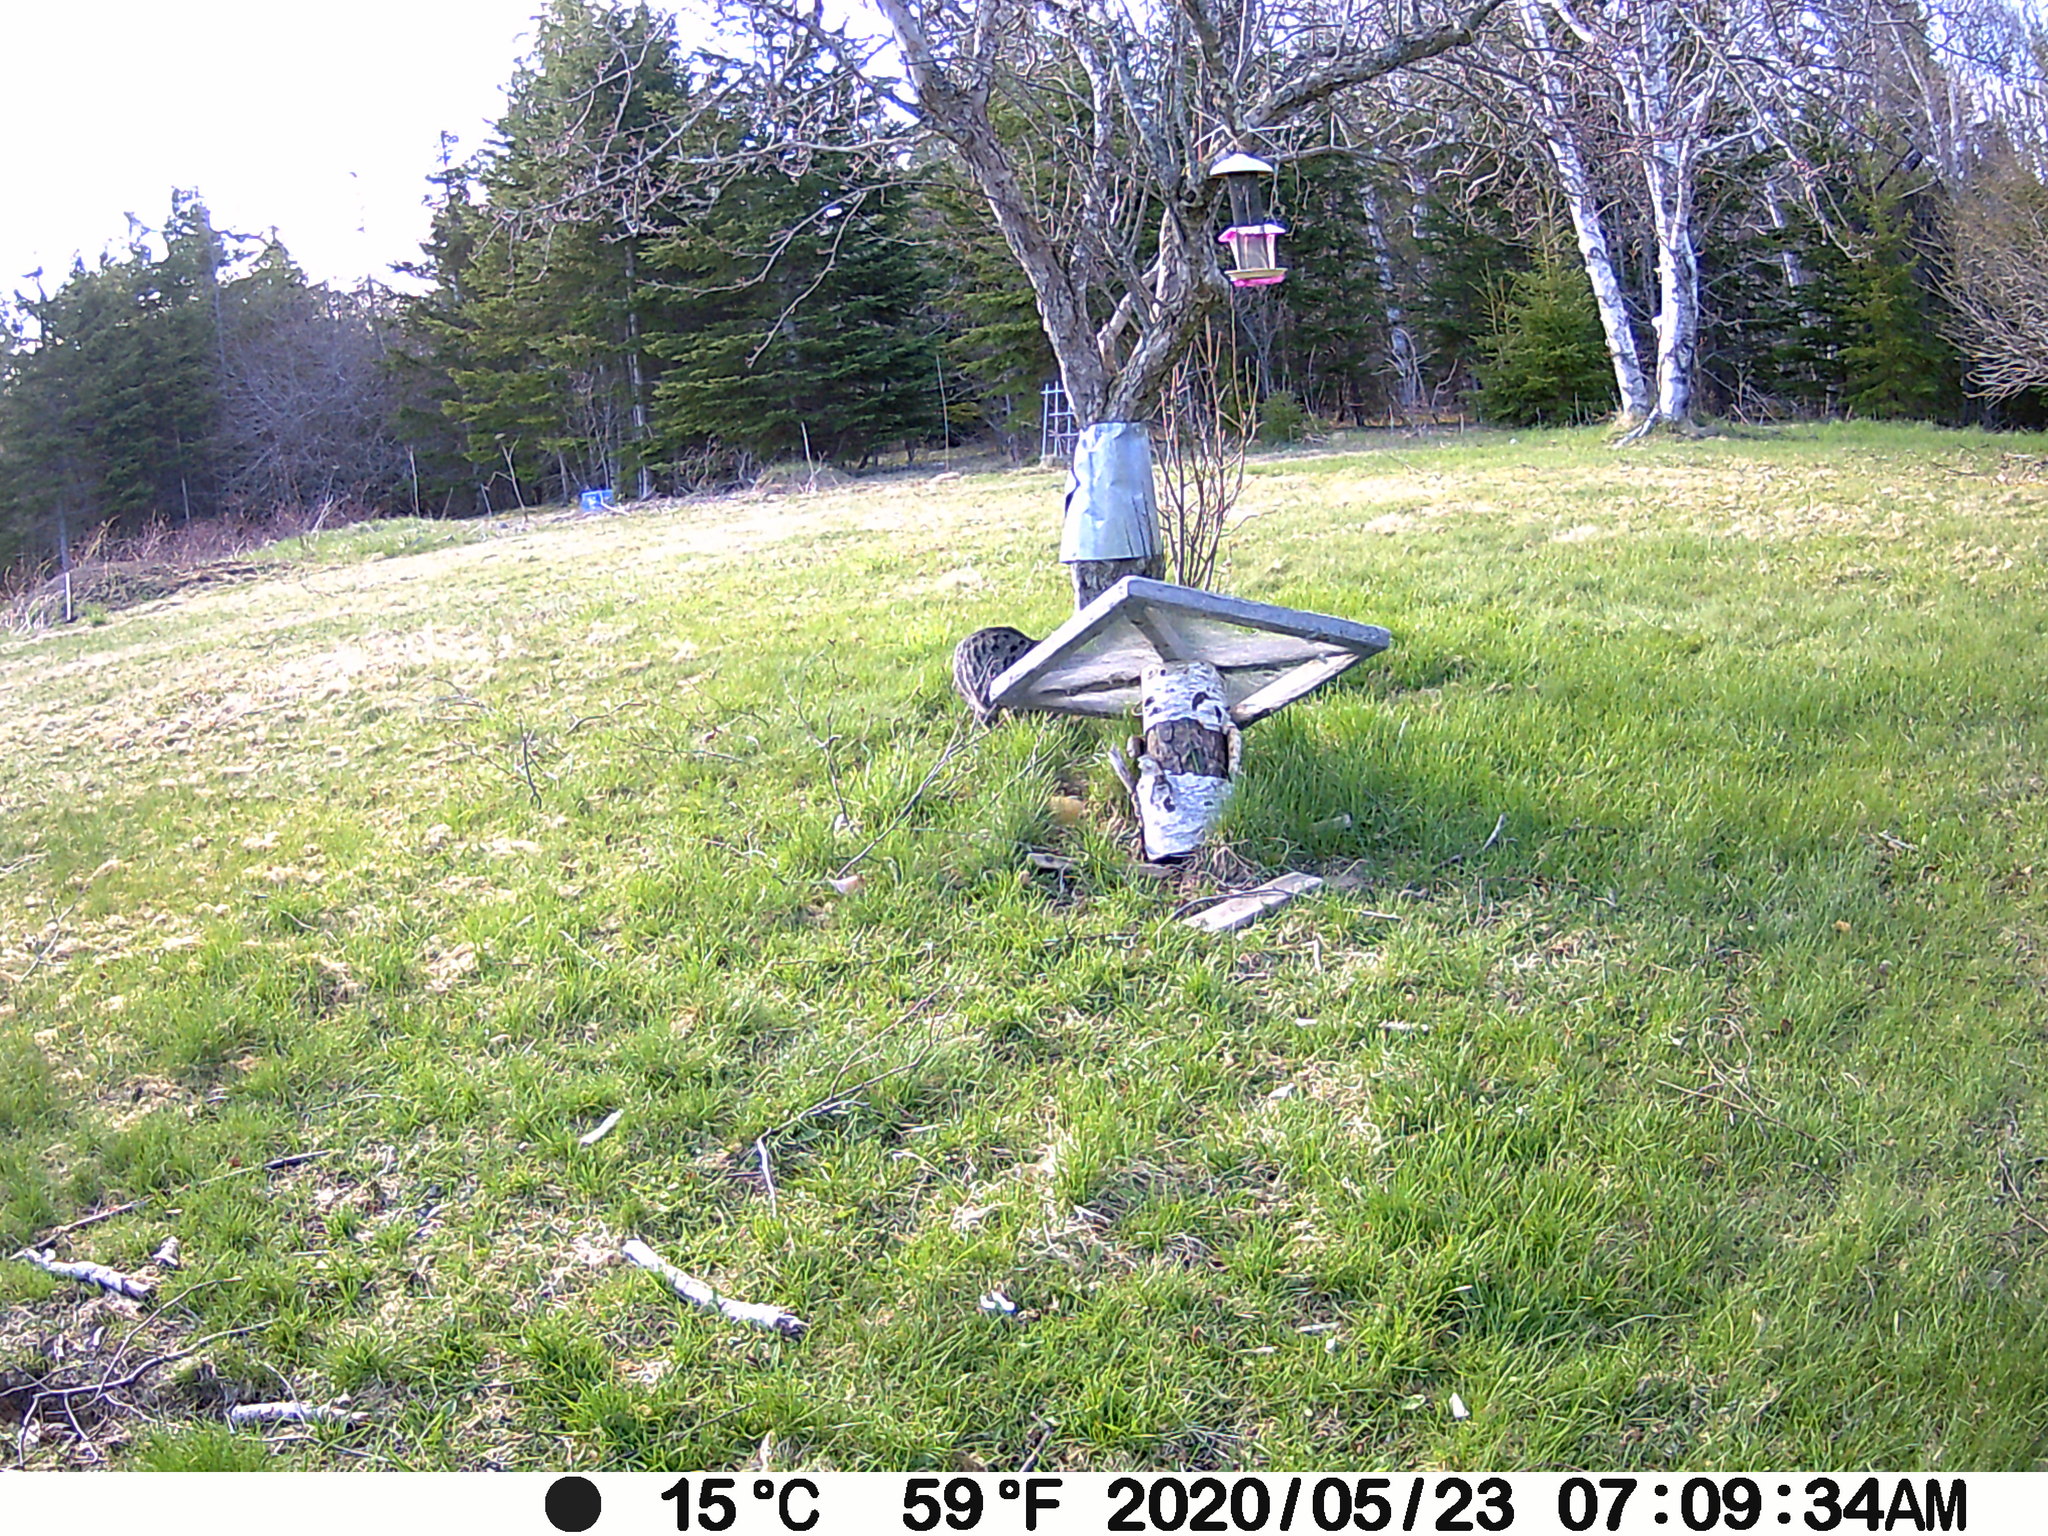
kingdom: Animalia
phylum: Chordata
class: Mammalia
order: Carnivora
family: Felidae
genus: Felis
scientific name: Felis catus
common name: Domestic cat
